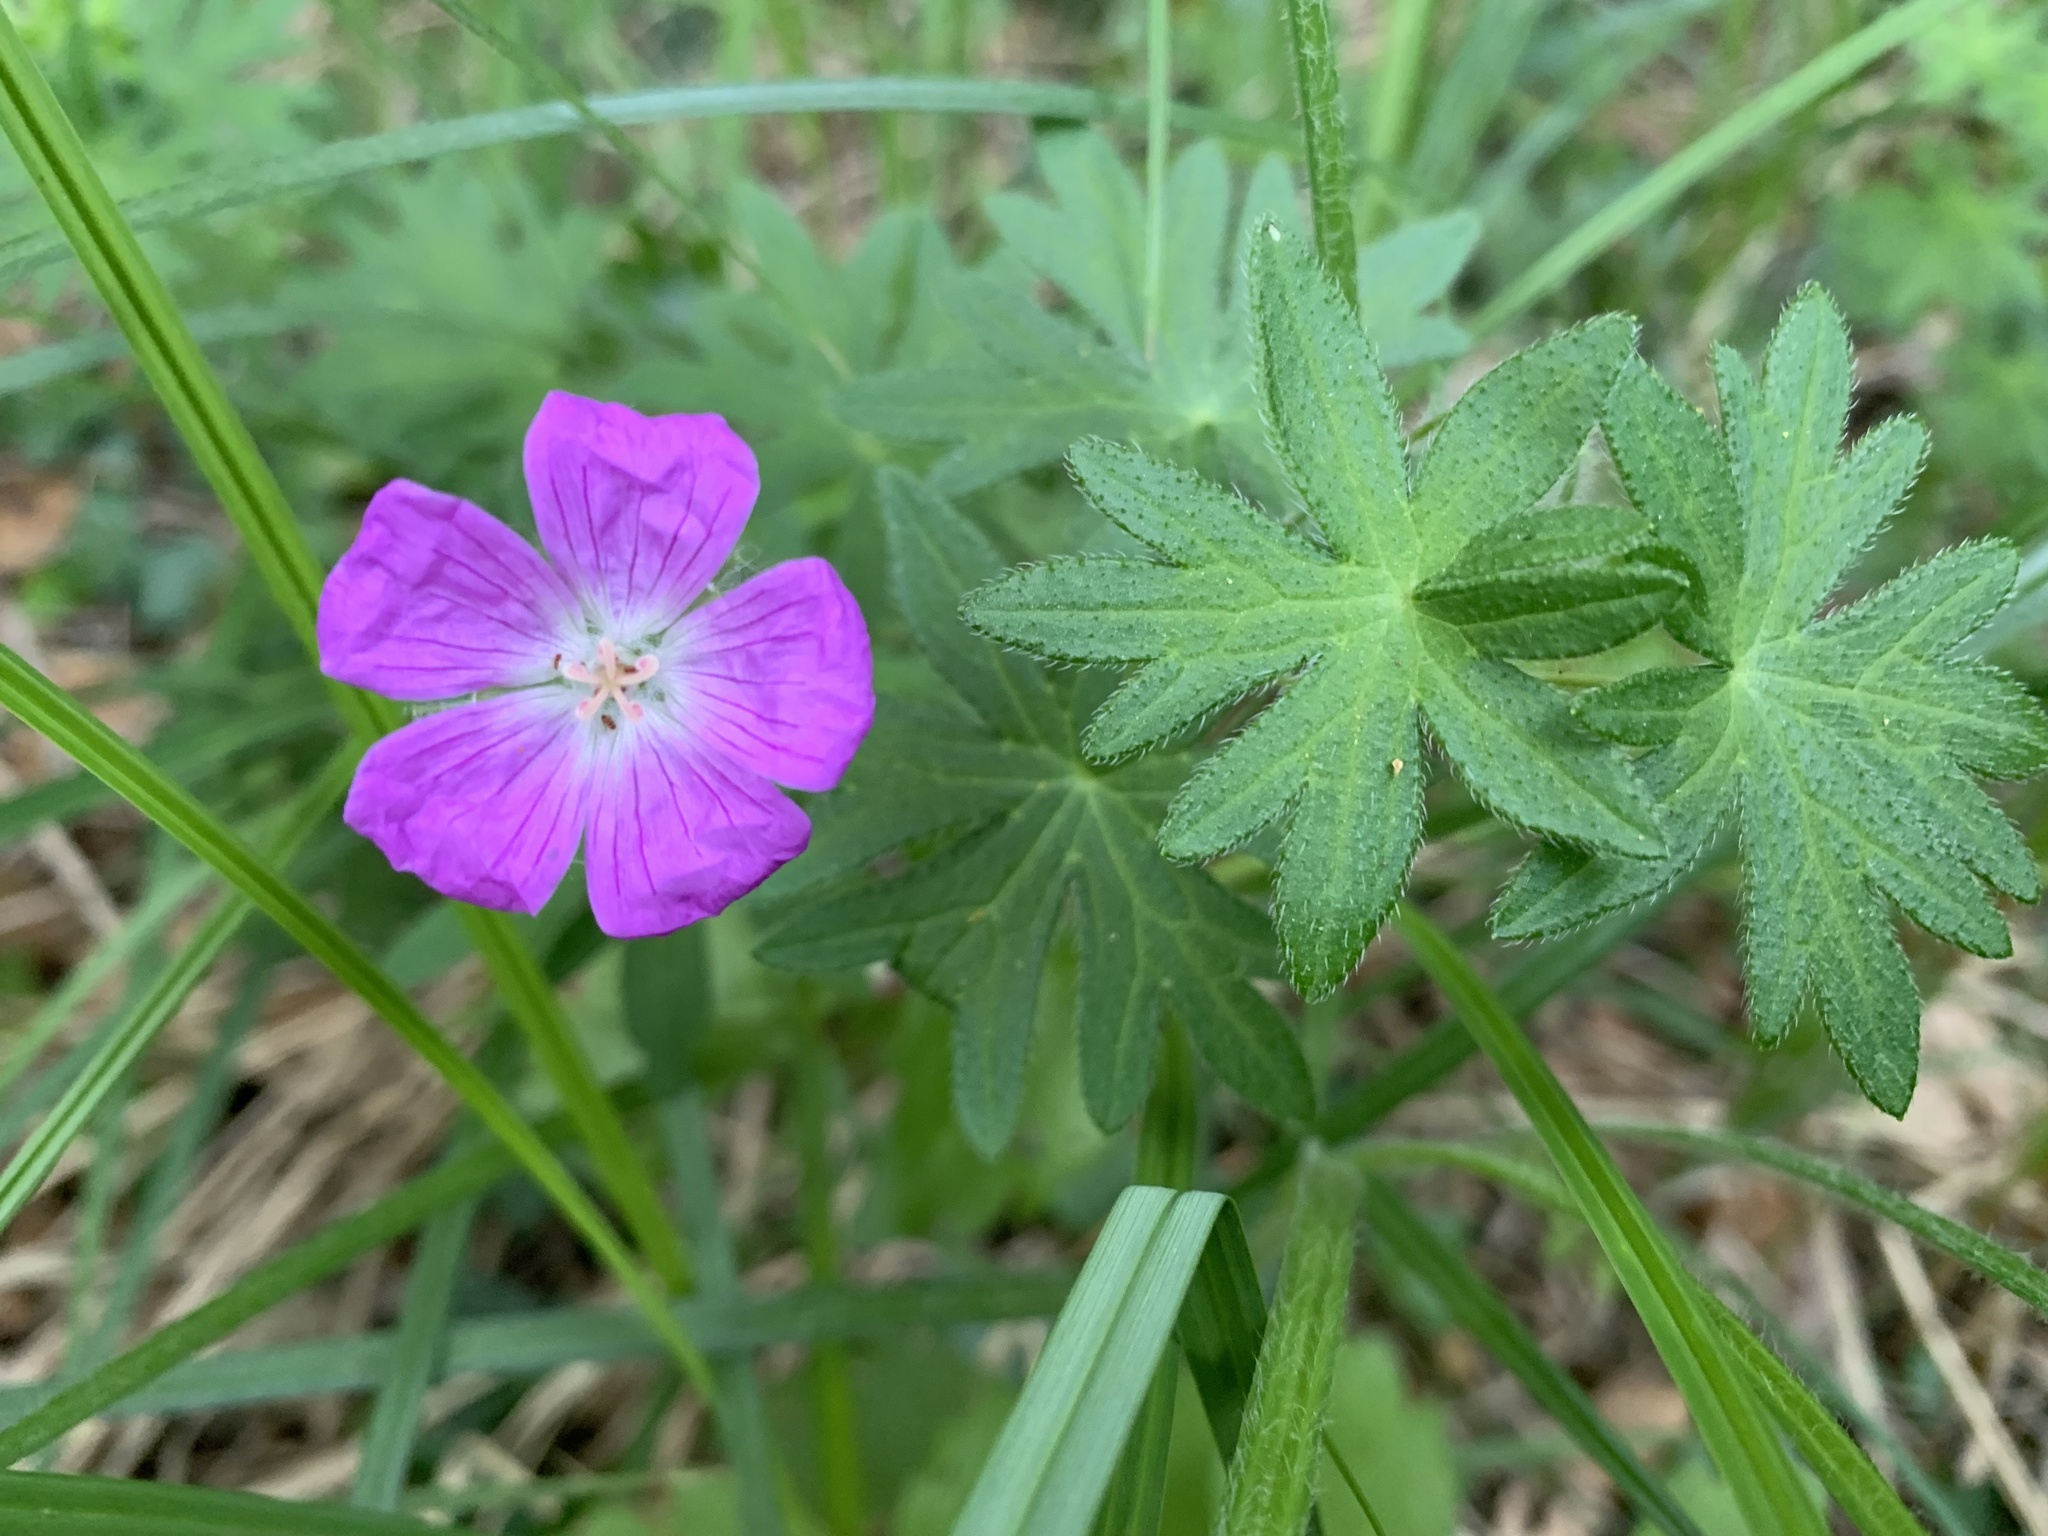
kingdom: Plantae
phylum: Tracheophyta
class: Magnoliopsida
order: Geraniales
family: Geraniaceae
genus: Geranium
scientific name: Geranium sanguineum
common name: Bloody crane's-bill
